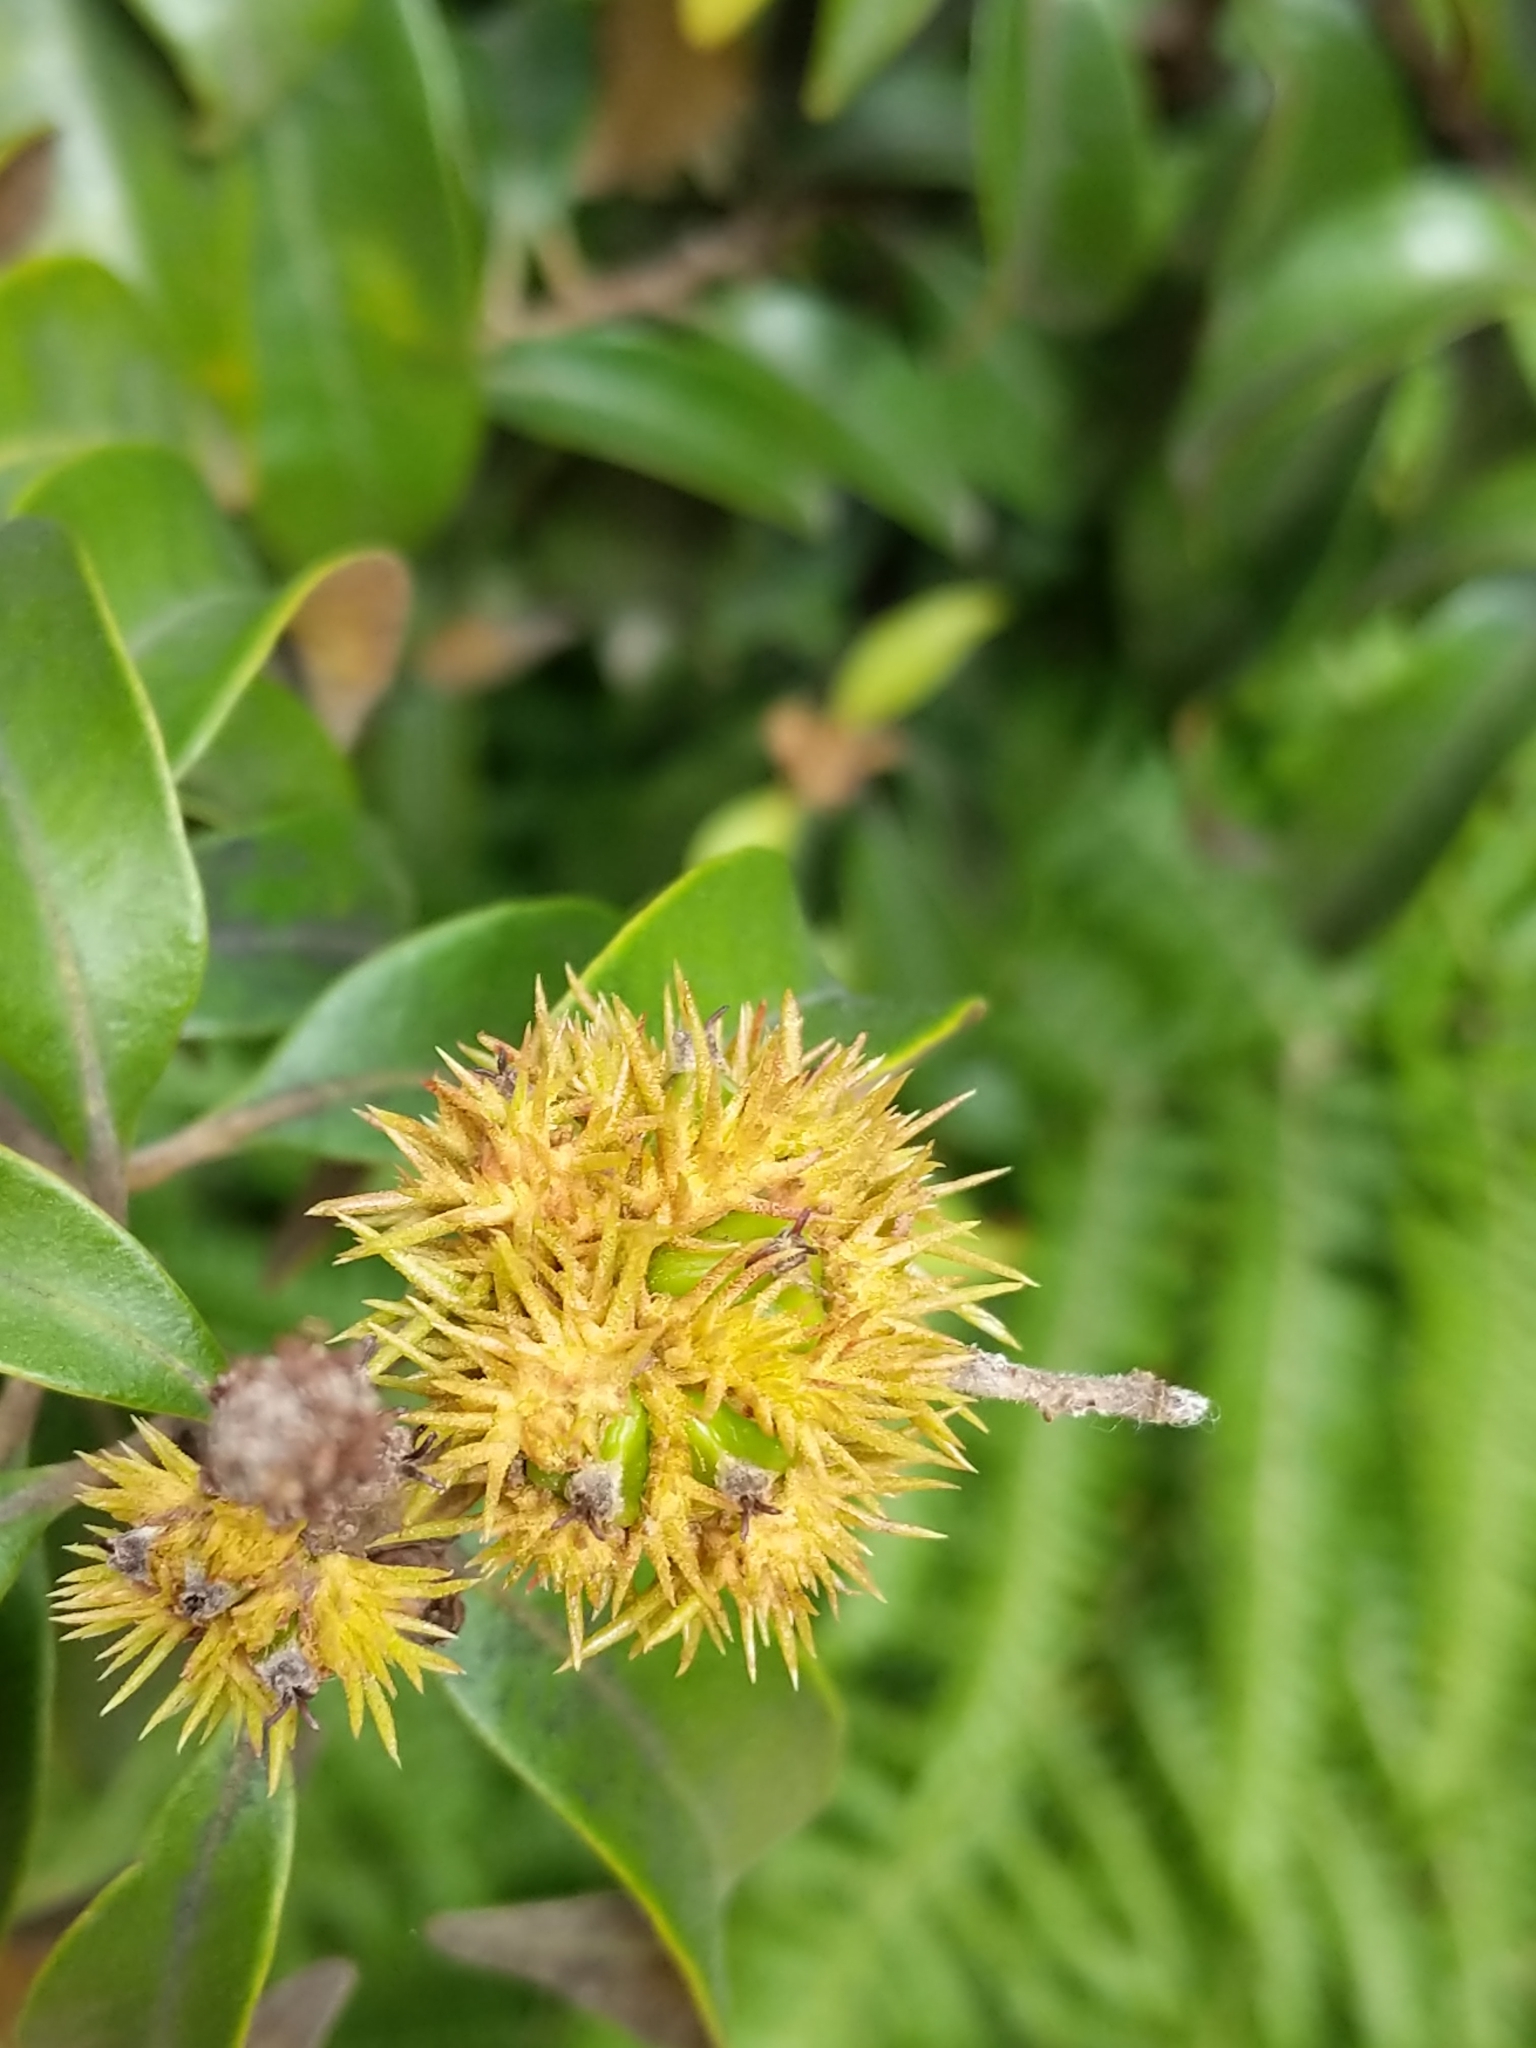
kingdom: Plantae
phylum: Tracheophyta
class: Magnoliopsida
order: Fagales
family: Fagaceae
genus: Chrysolepis
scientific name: Chrysolepis chrysophylla
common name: Giant chinquapin
